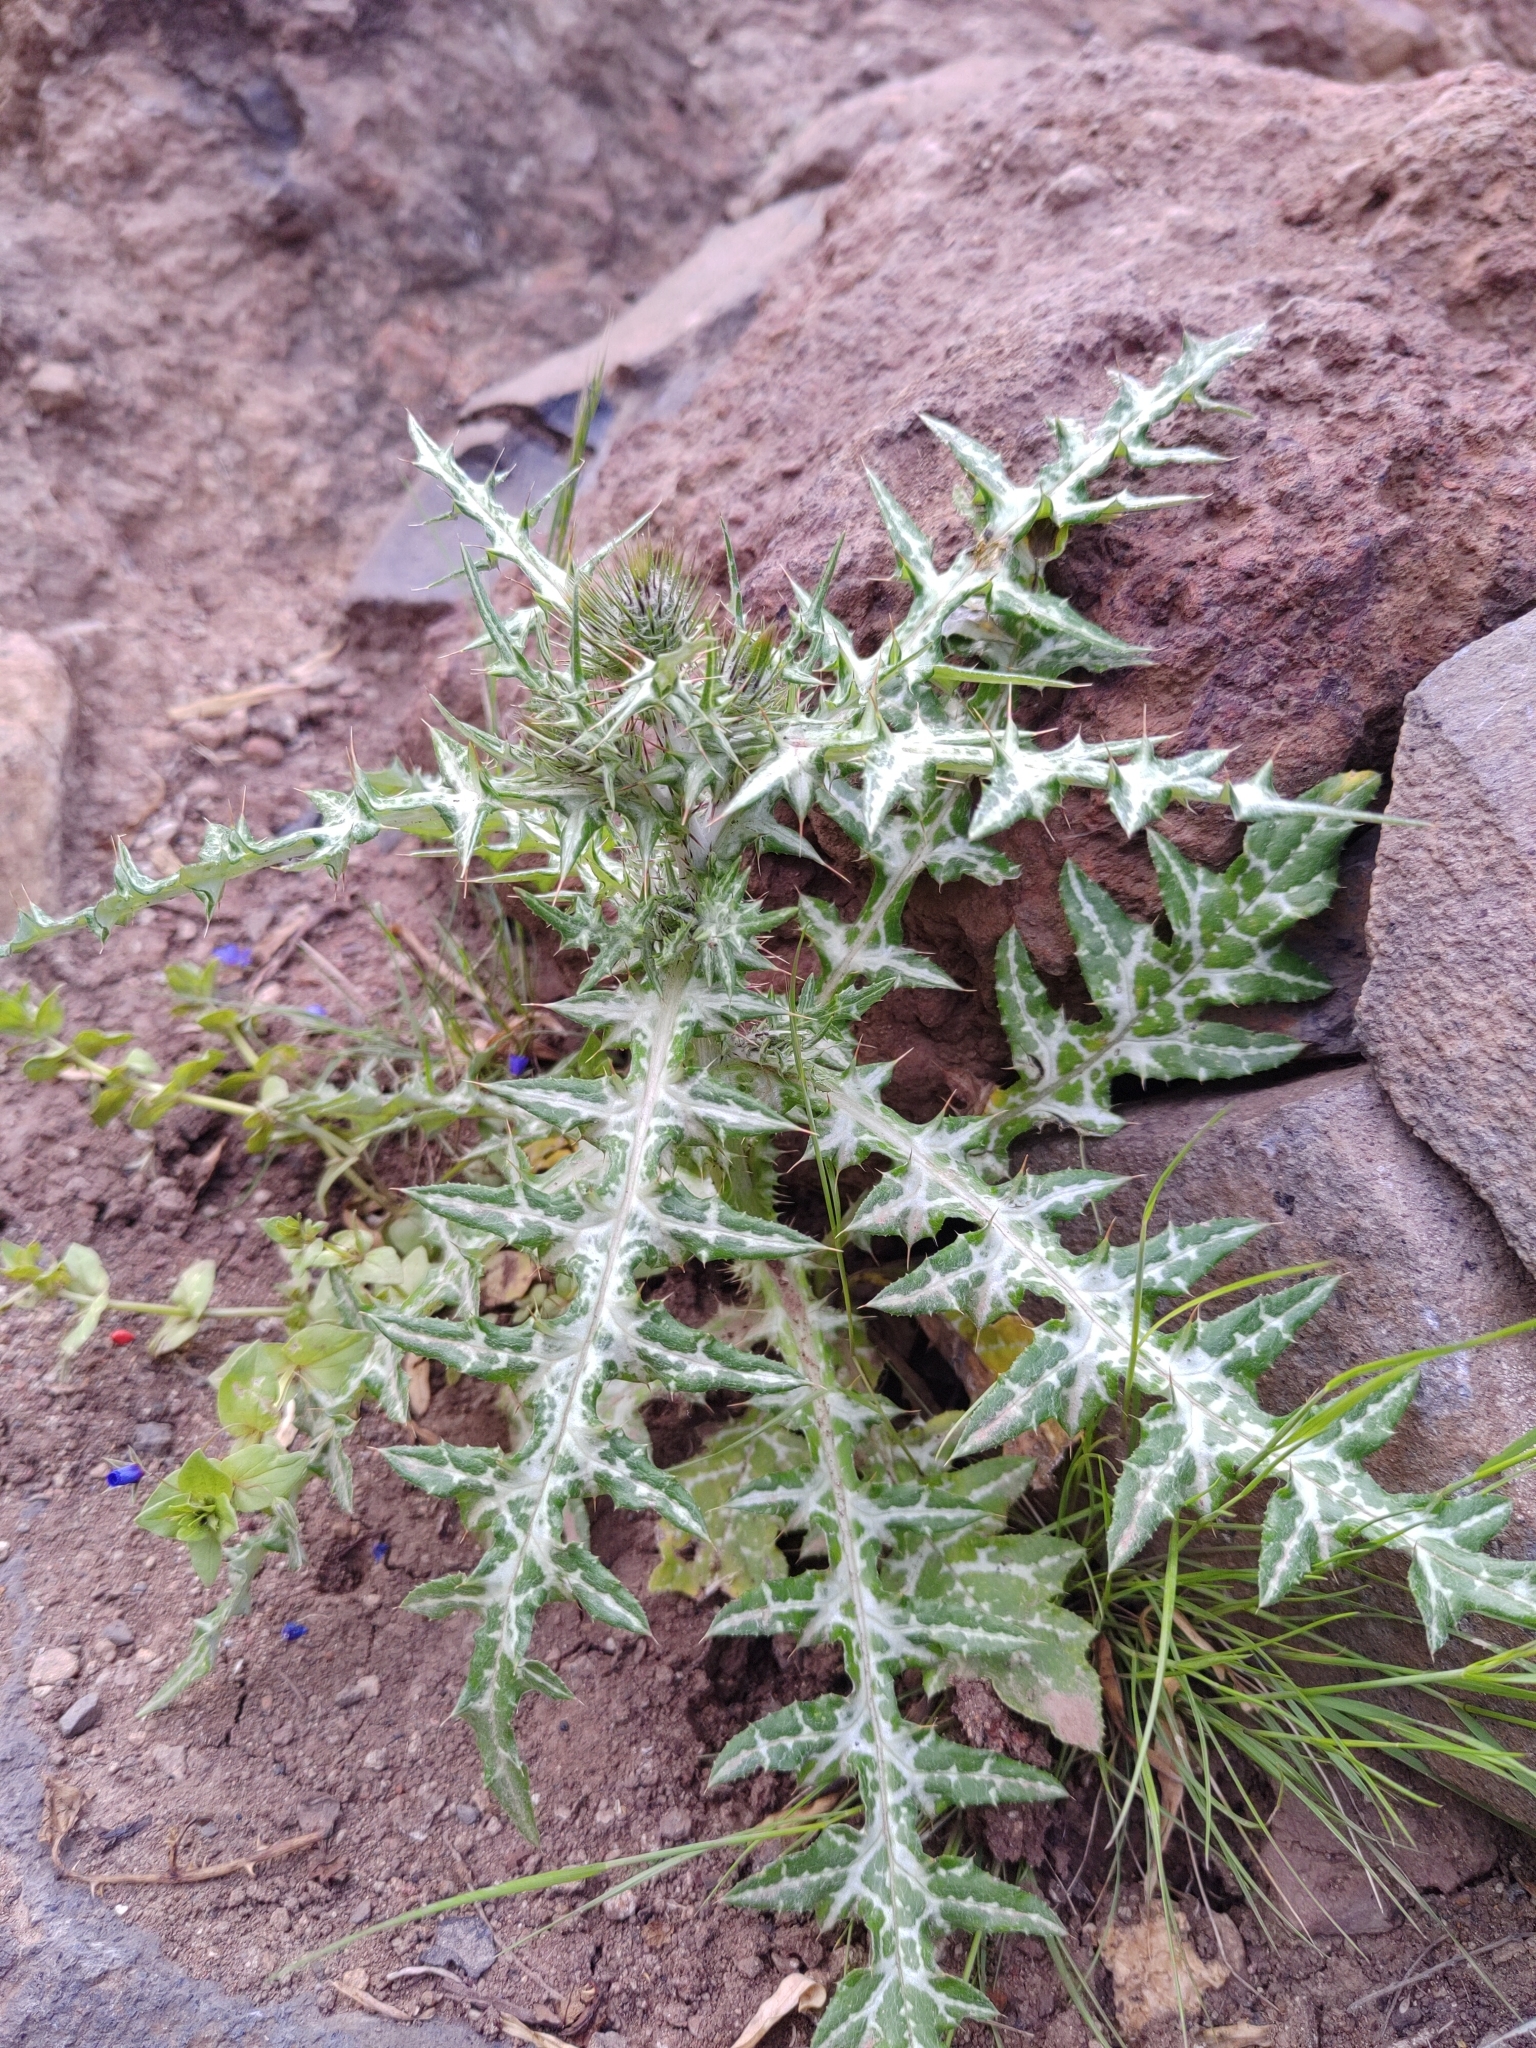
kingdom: Plantae
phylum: Tracheophyta
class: Magnoliopsida
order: Asterales
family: Asteraceae
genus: Galactites
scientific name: Galactites tomentosa
